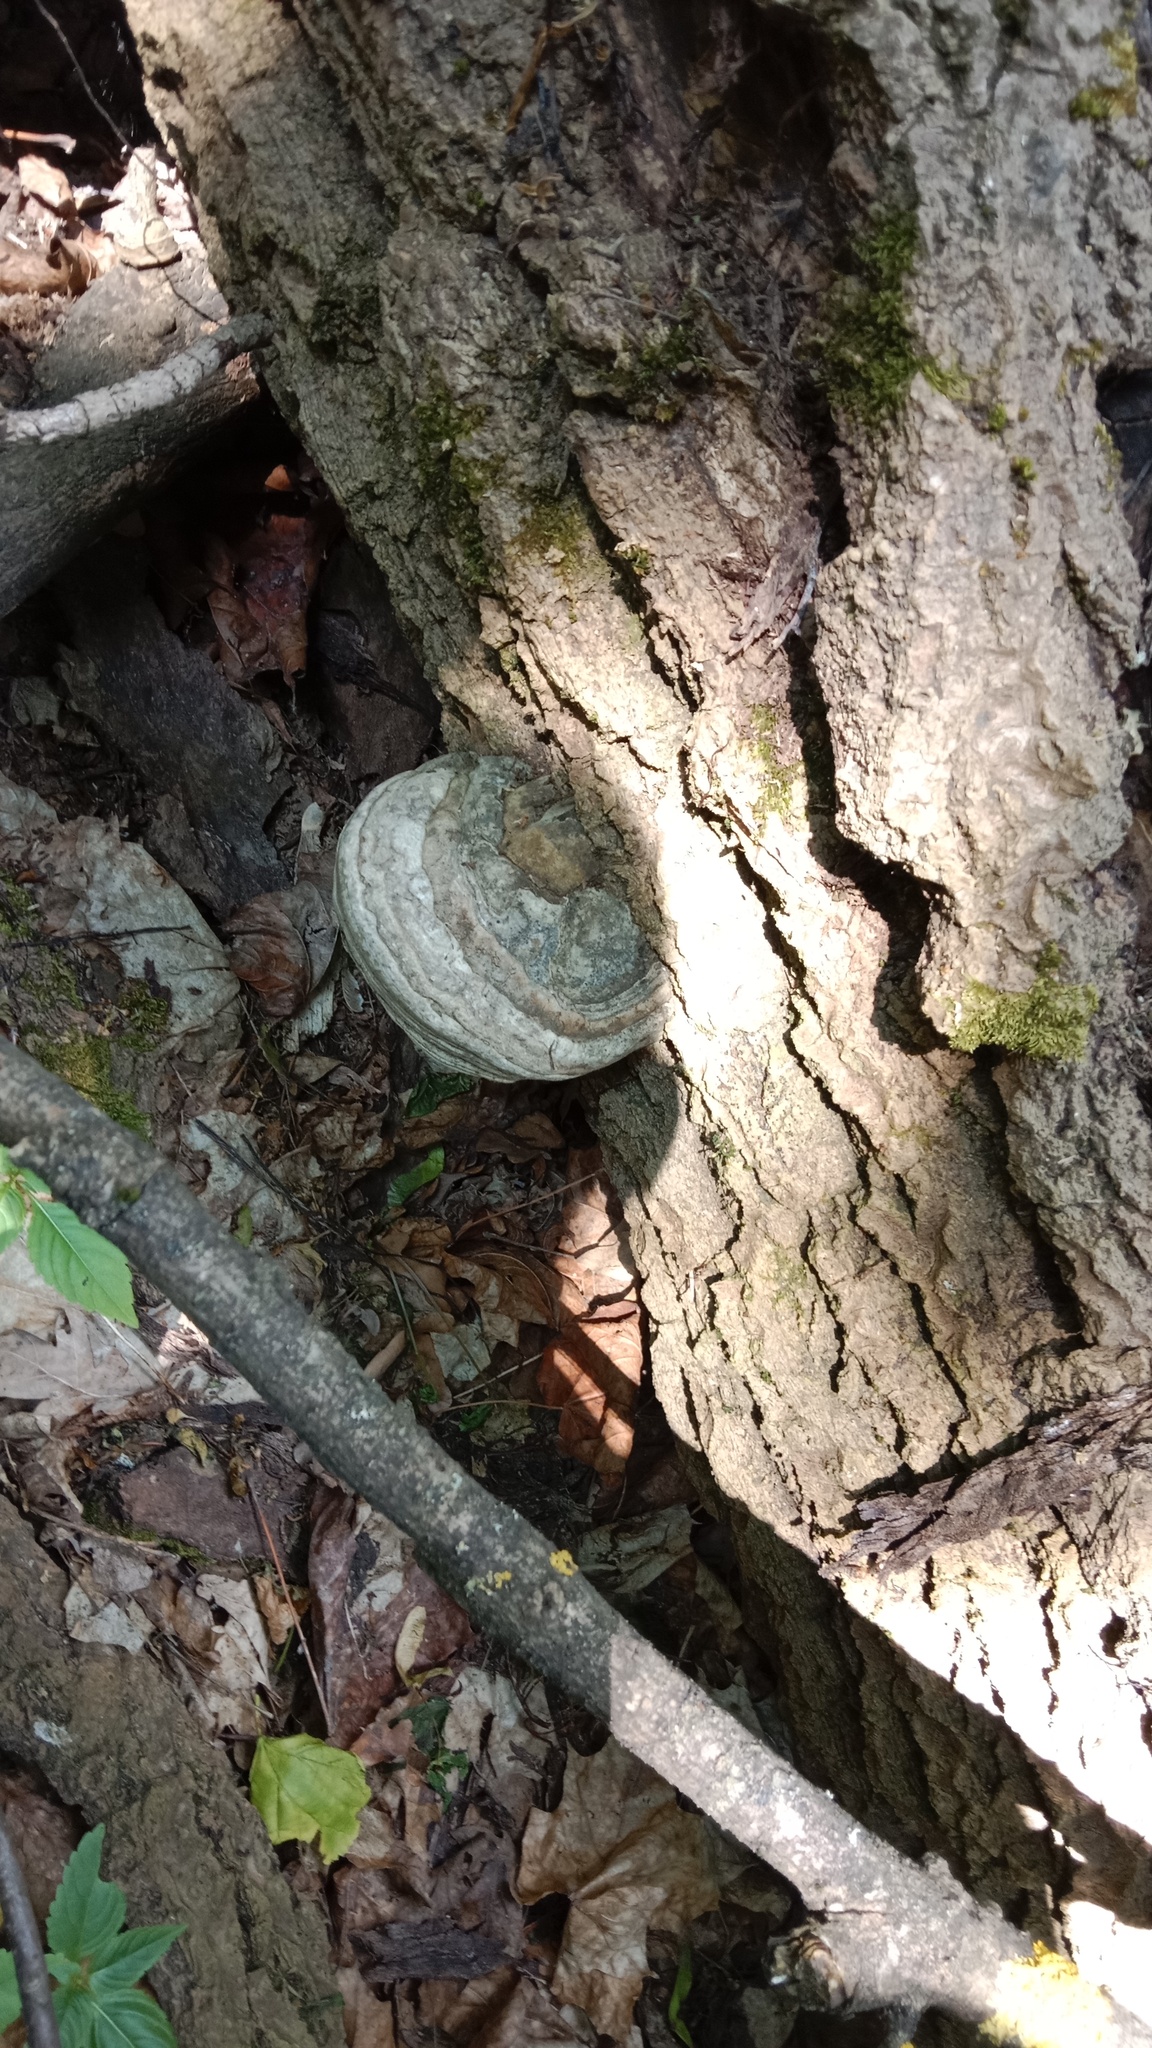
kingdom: Fungi
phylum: Basidiomycota
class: Agaricomycetes
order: Polyporales
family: Polyporaceae
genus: Fomes
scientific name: Fomes fomentarius
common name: Hoof fungus
